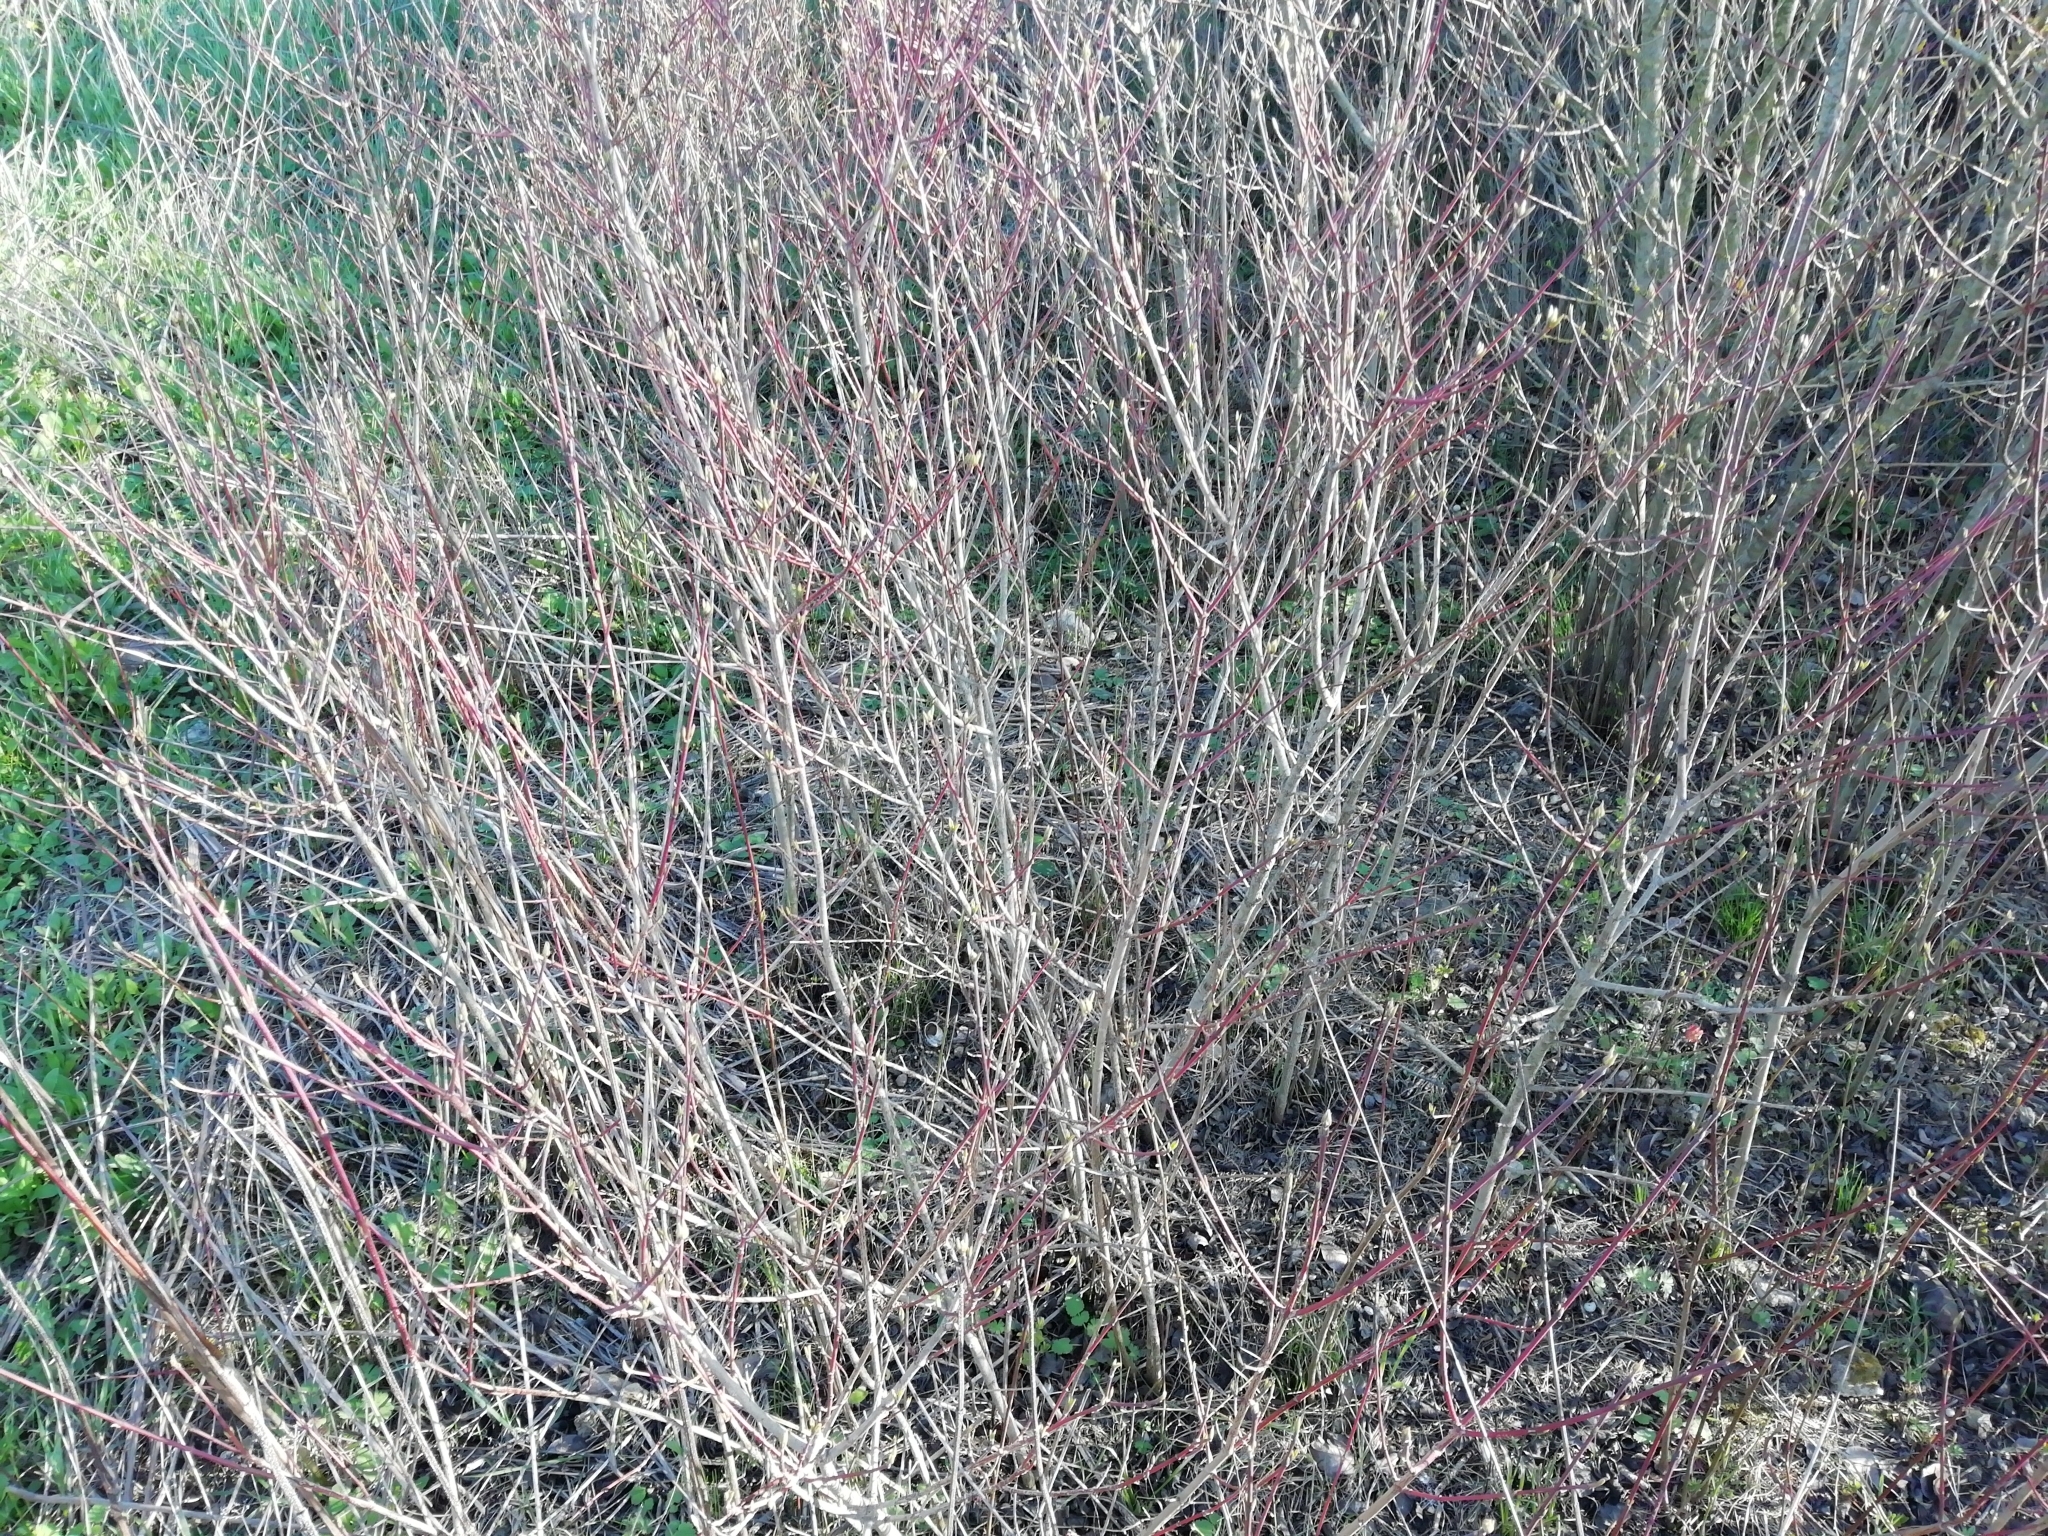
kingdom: Plantae
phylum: Tracheophyta
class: Magnoliopsida
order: Cornales
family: Cornaceae
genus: Cornus
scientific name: Cornus sanguinea
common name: Dogwood
